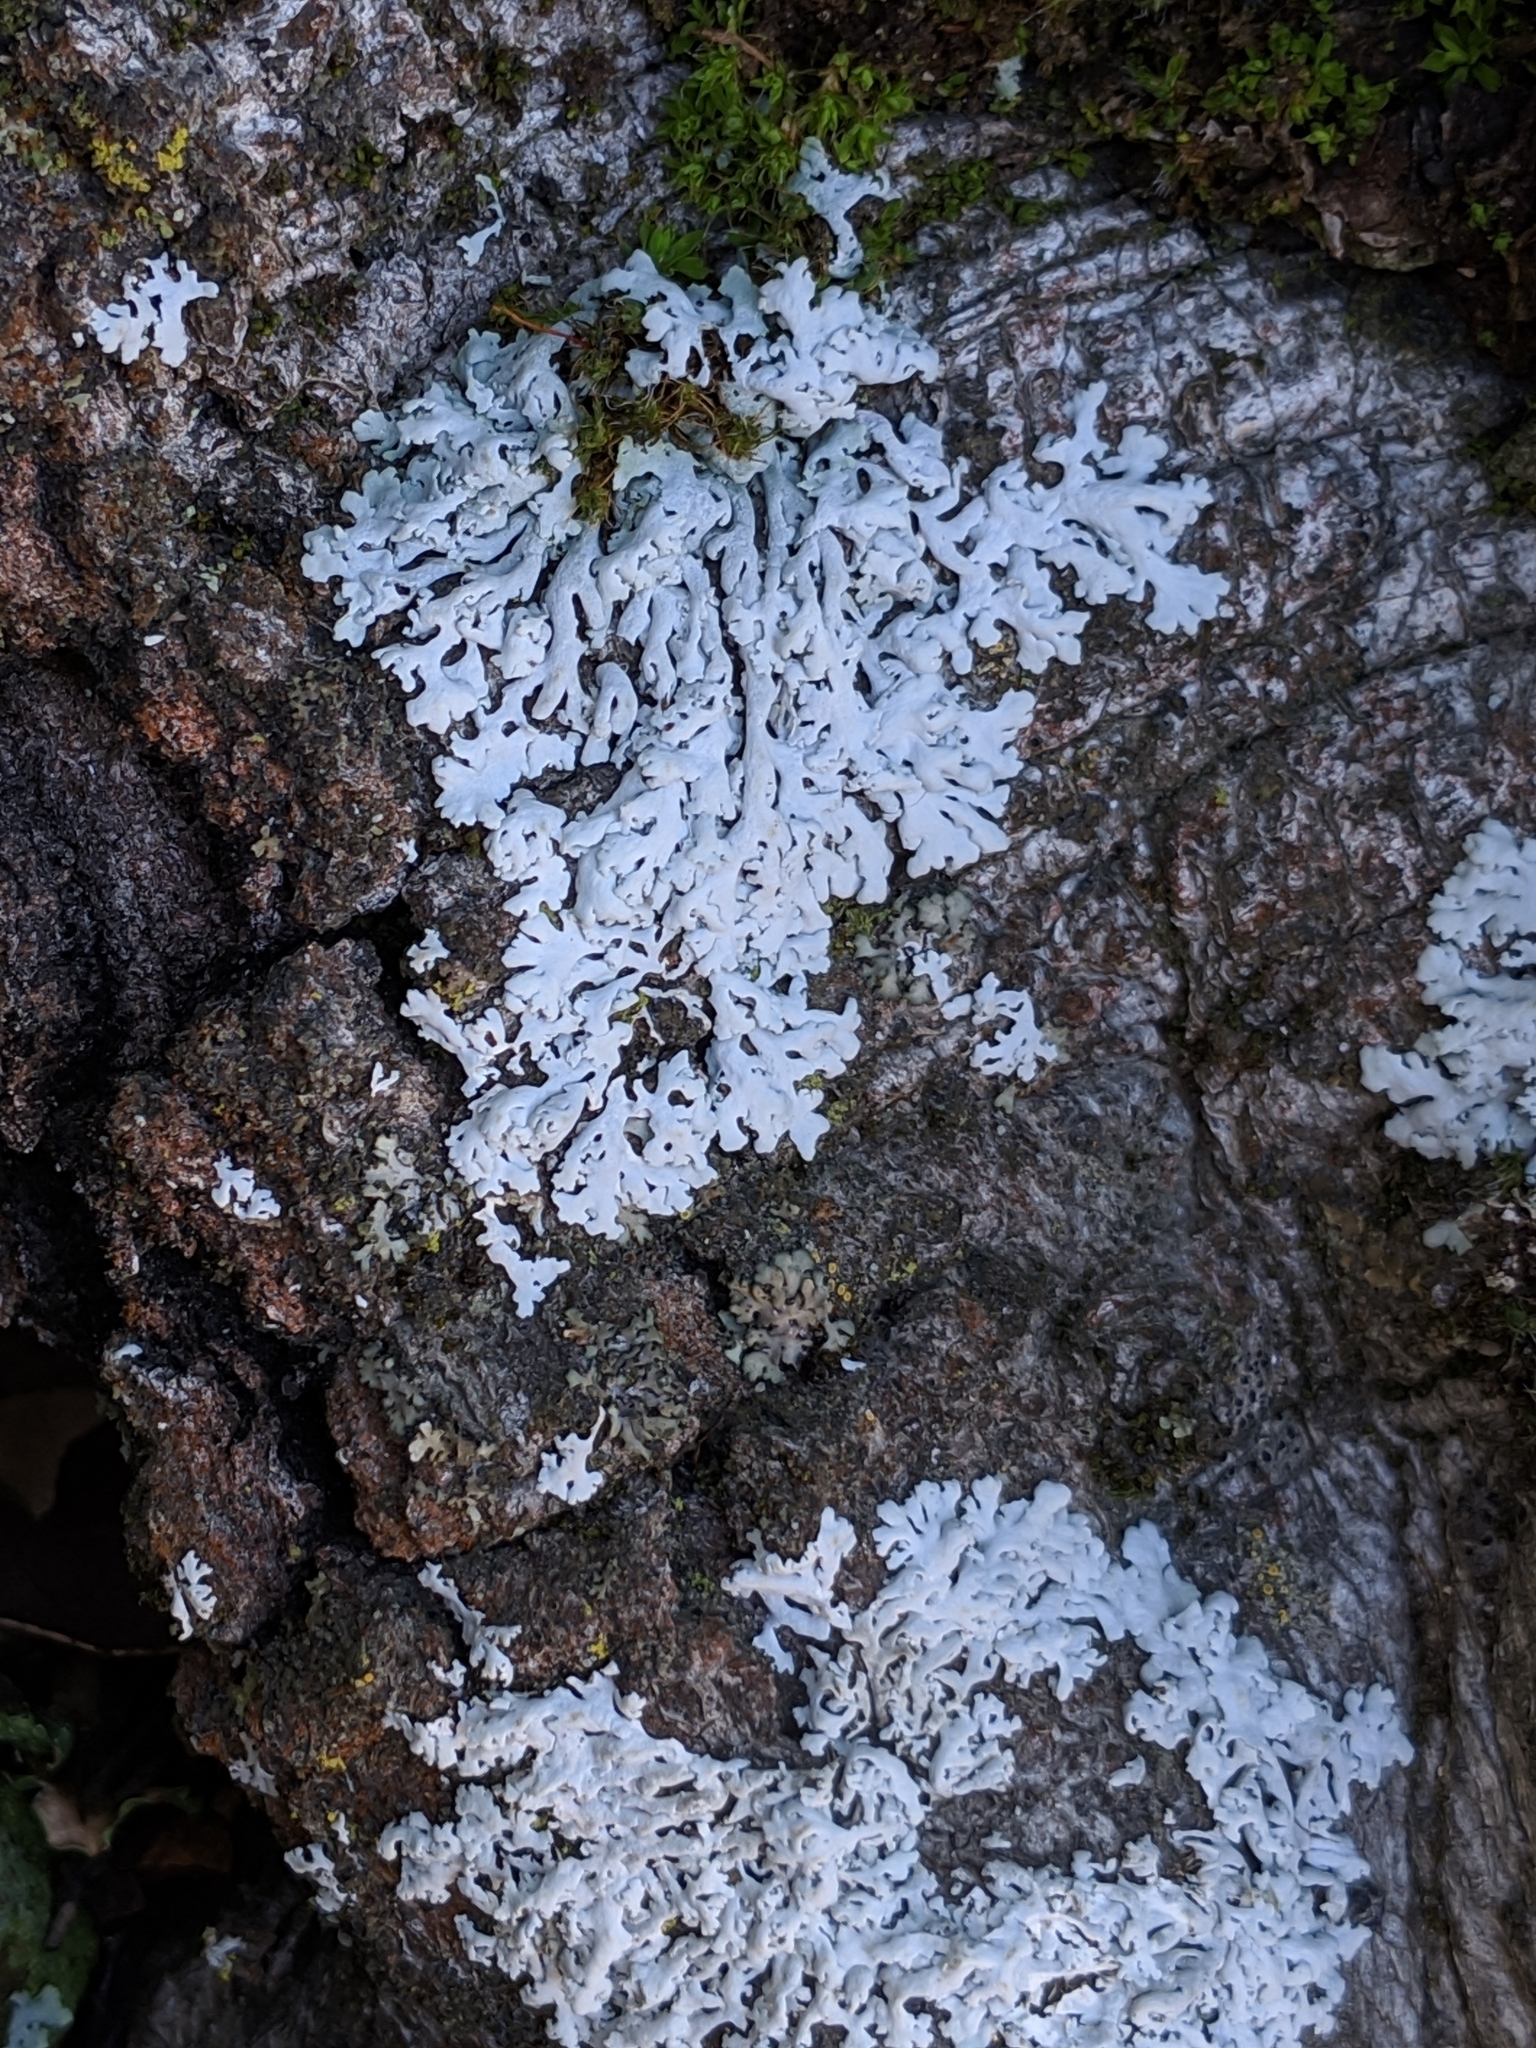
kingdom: Fungi
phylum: Ascomycota
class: Lecanoromycetes
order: Caliciales
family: Physciaceae
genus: Physcia
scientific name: Physcia tribacia
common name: Beaded rosette lichen
